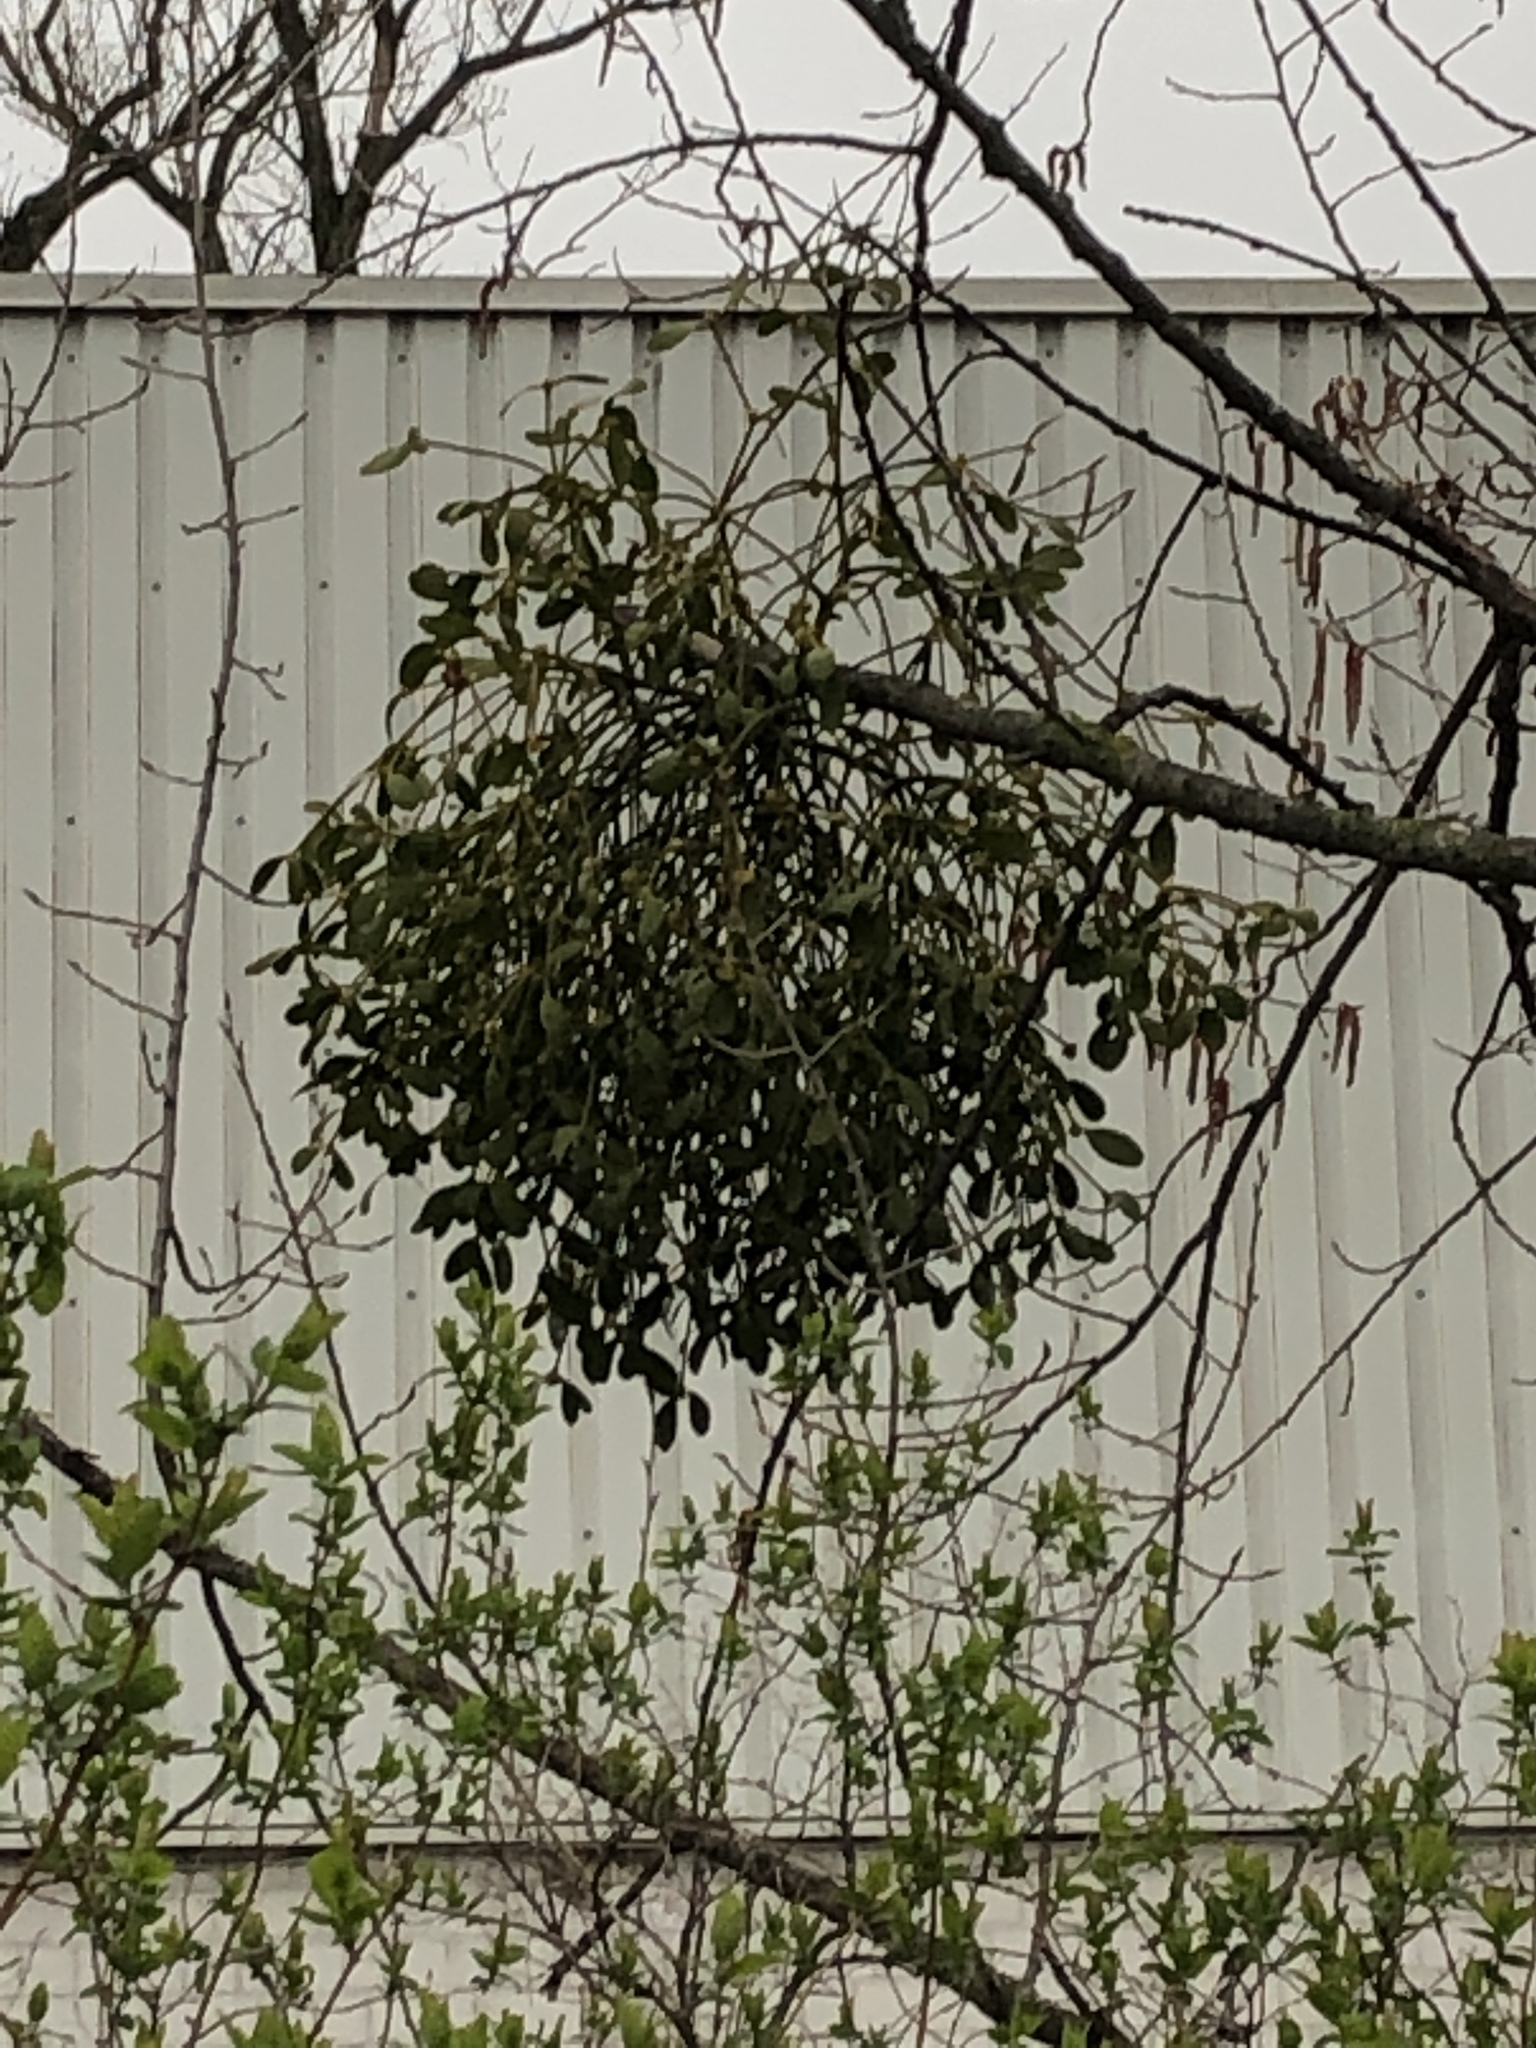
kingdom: Plantae
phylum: Tracheophyta
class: Magnoliopsida
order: Santalales
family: Viscaceae
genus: Viscum
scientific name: Viscum album
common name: Mistletoe
